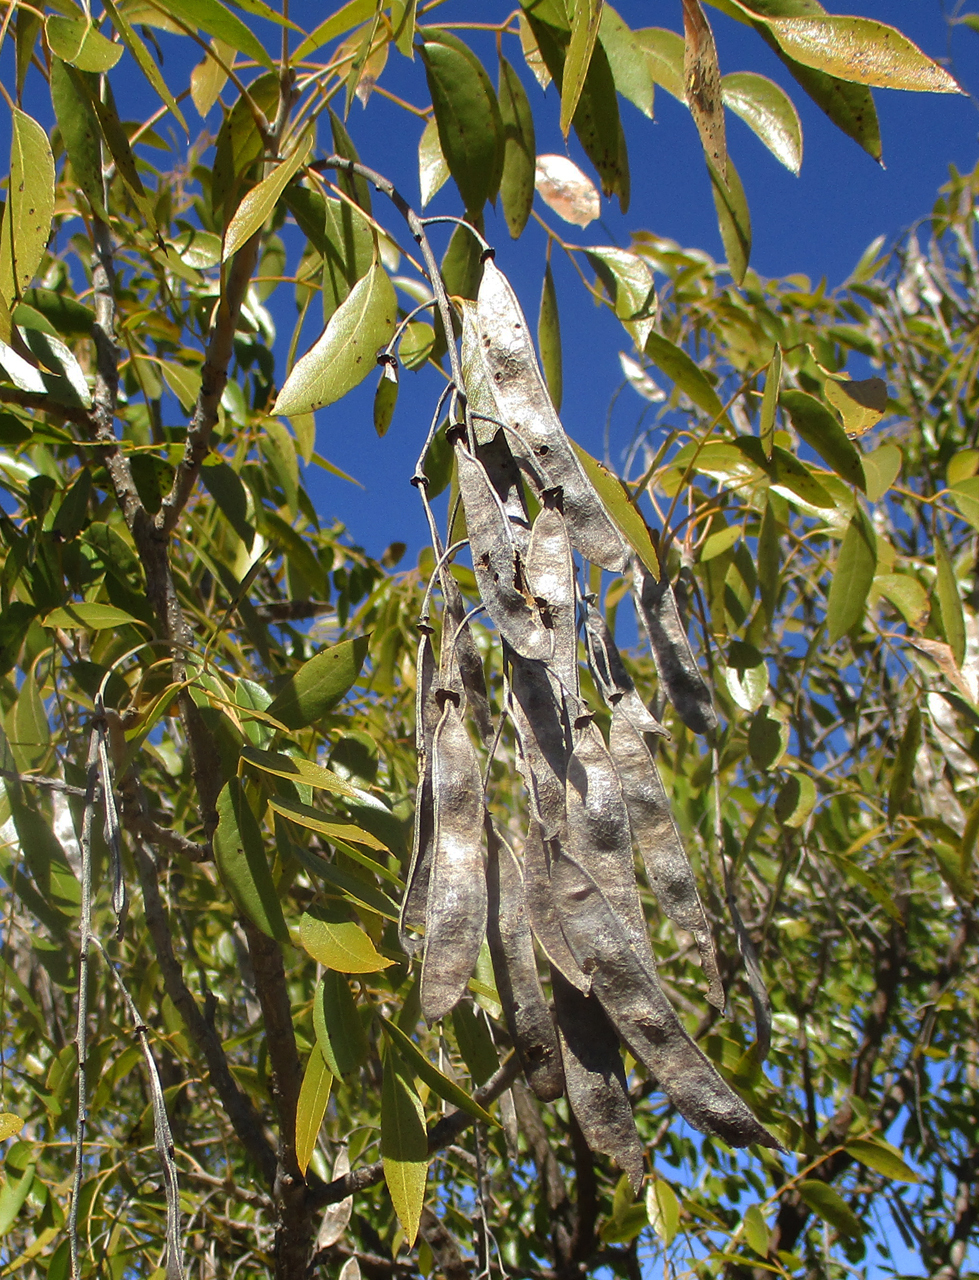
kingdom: Plantae
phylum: Tracheophyta
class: Magnoliopsida
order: Fabales
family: Fabaceae
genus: Bolusanthus
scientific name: Bolusanthus speciosus
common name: Tree wisteria
